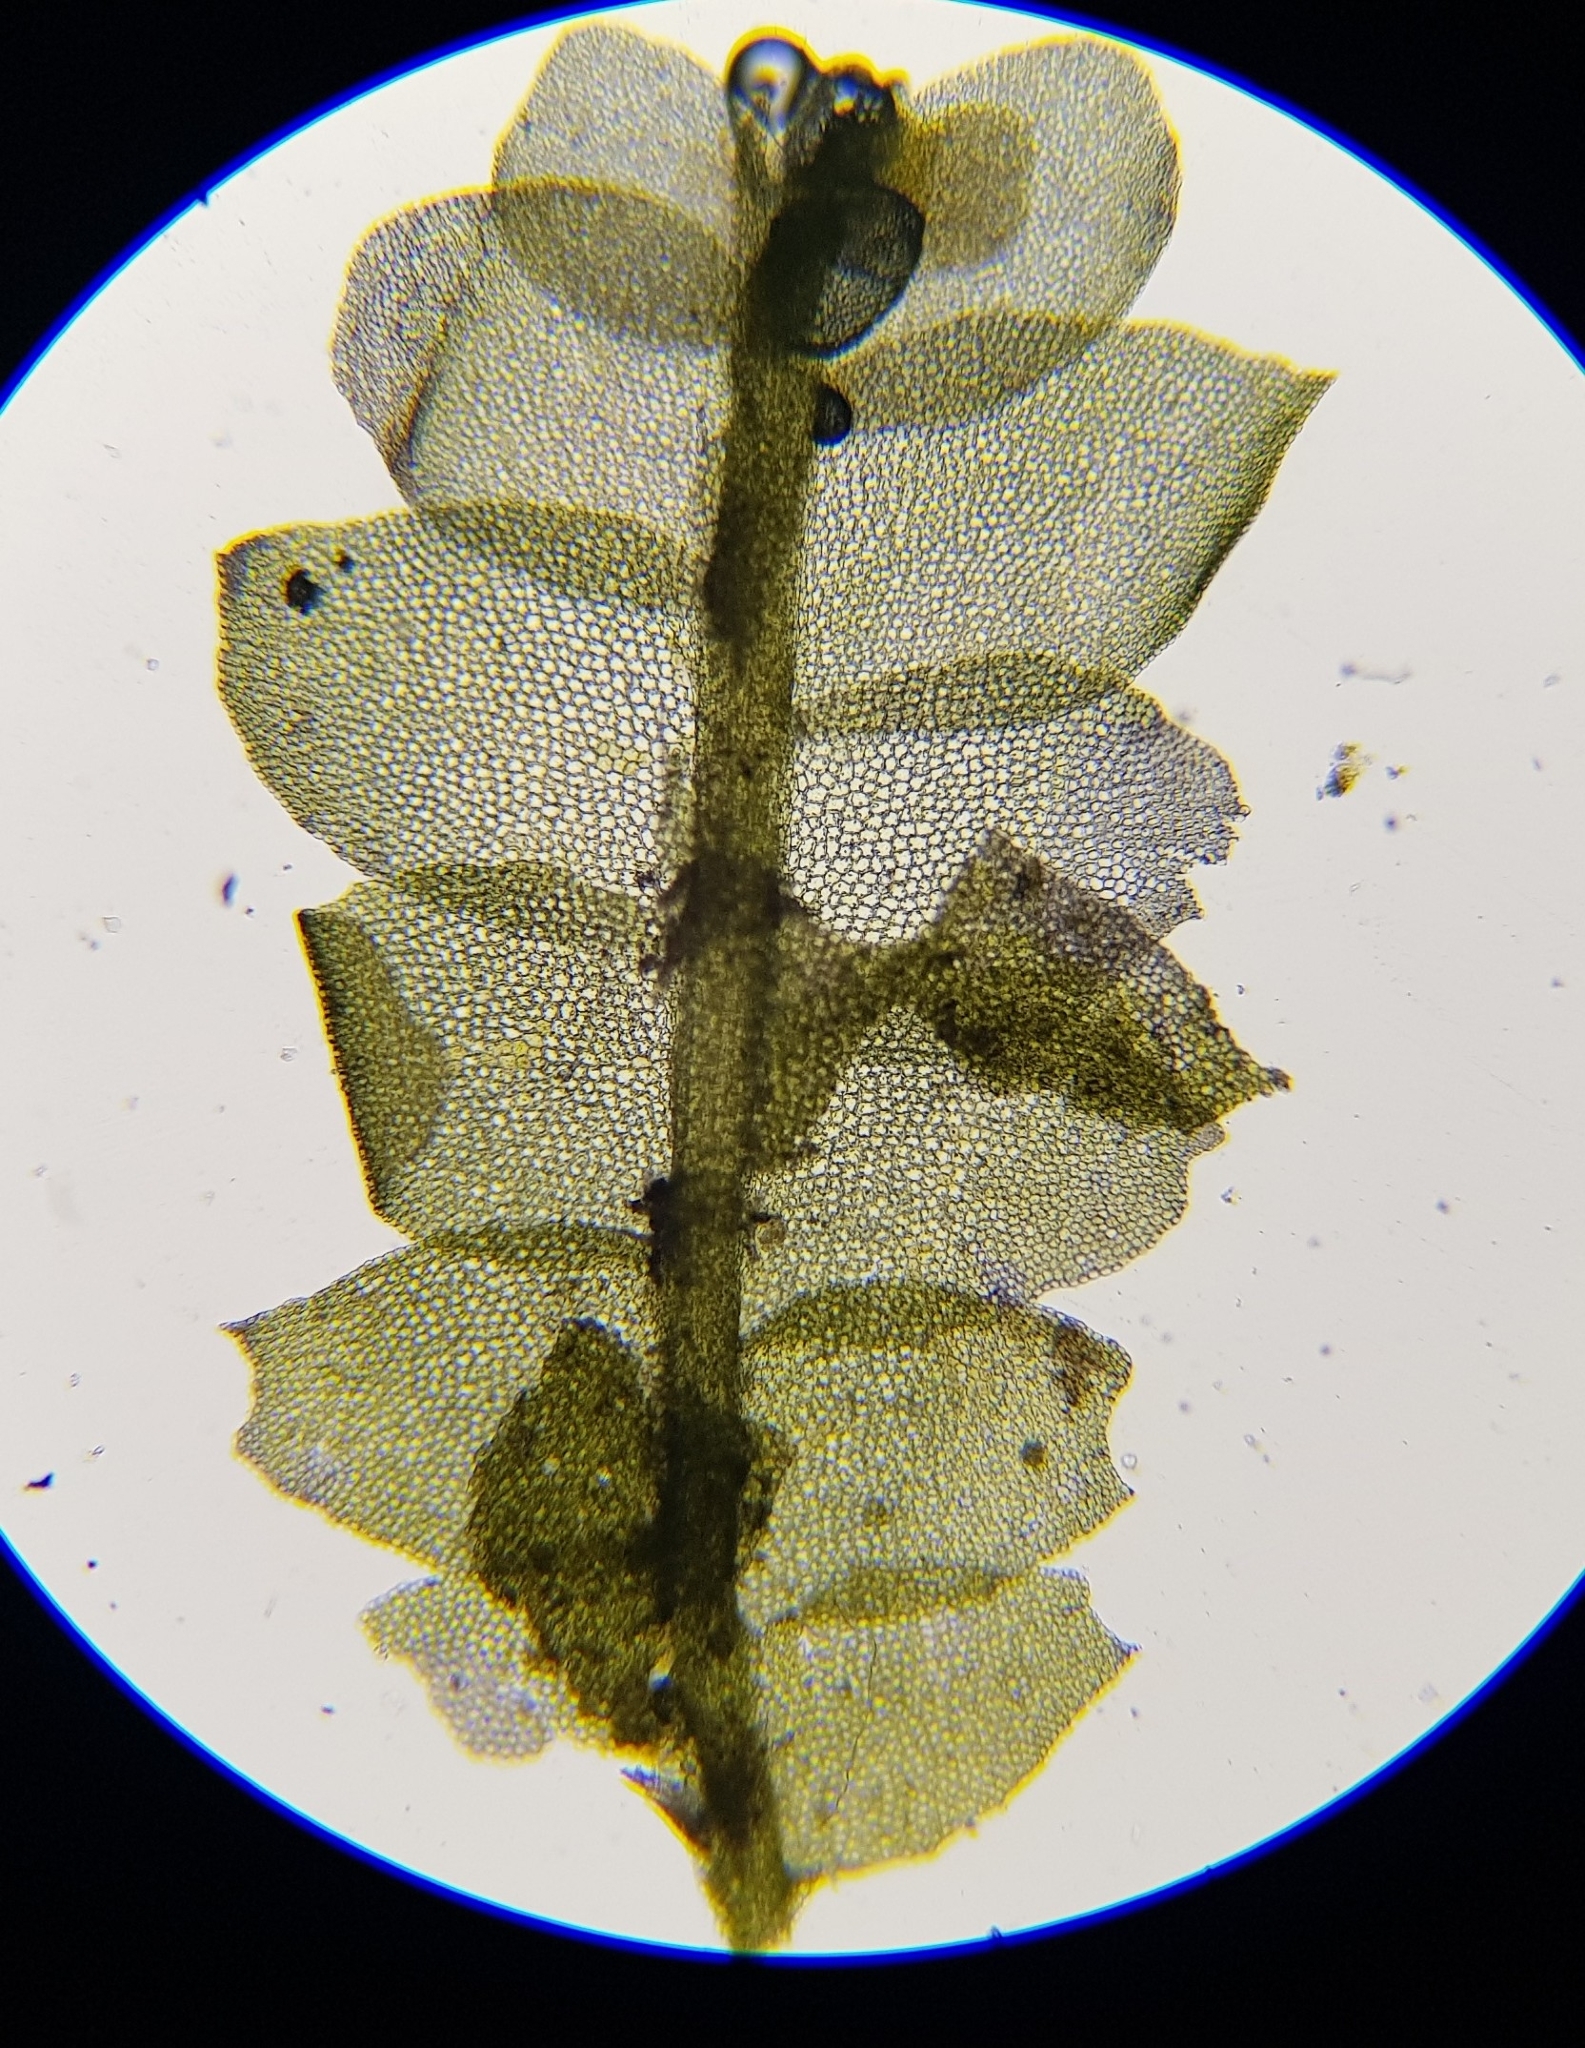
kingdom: Plantae
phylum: Marchantiophyta
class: Jungermanniopsida
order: Jungermanniales
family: Lophocoleaceae
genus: Lophocolea
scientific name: Lophocolea heterophylla
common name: Variable-leaved crestwort
